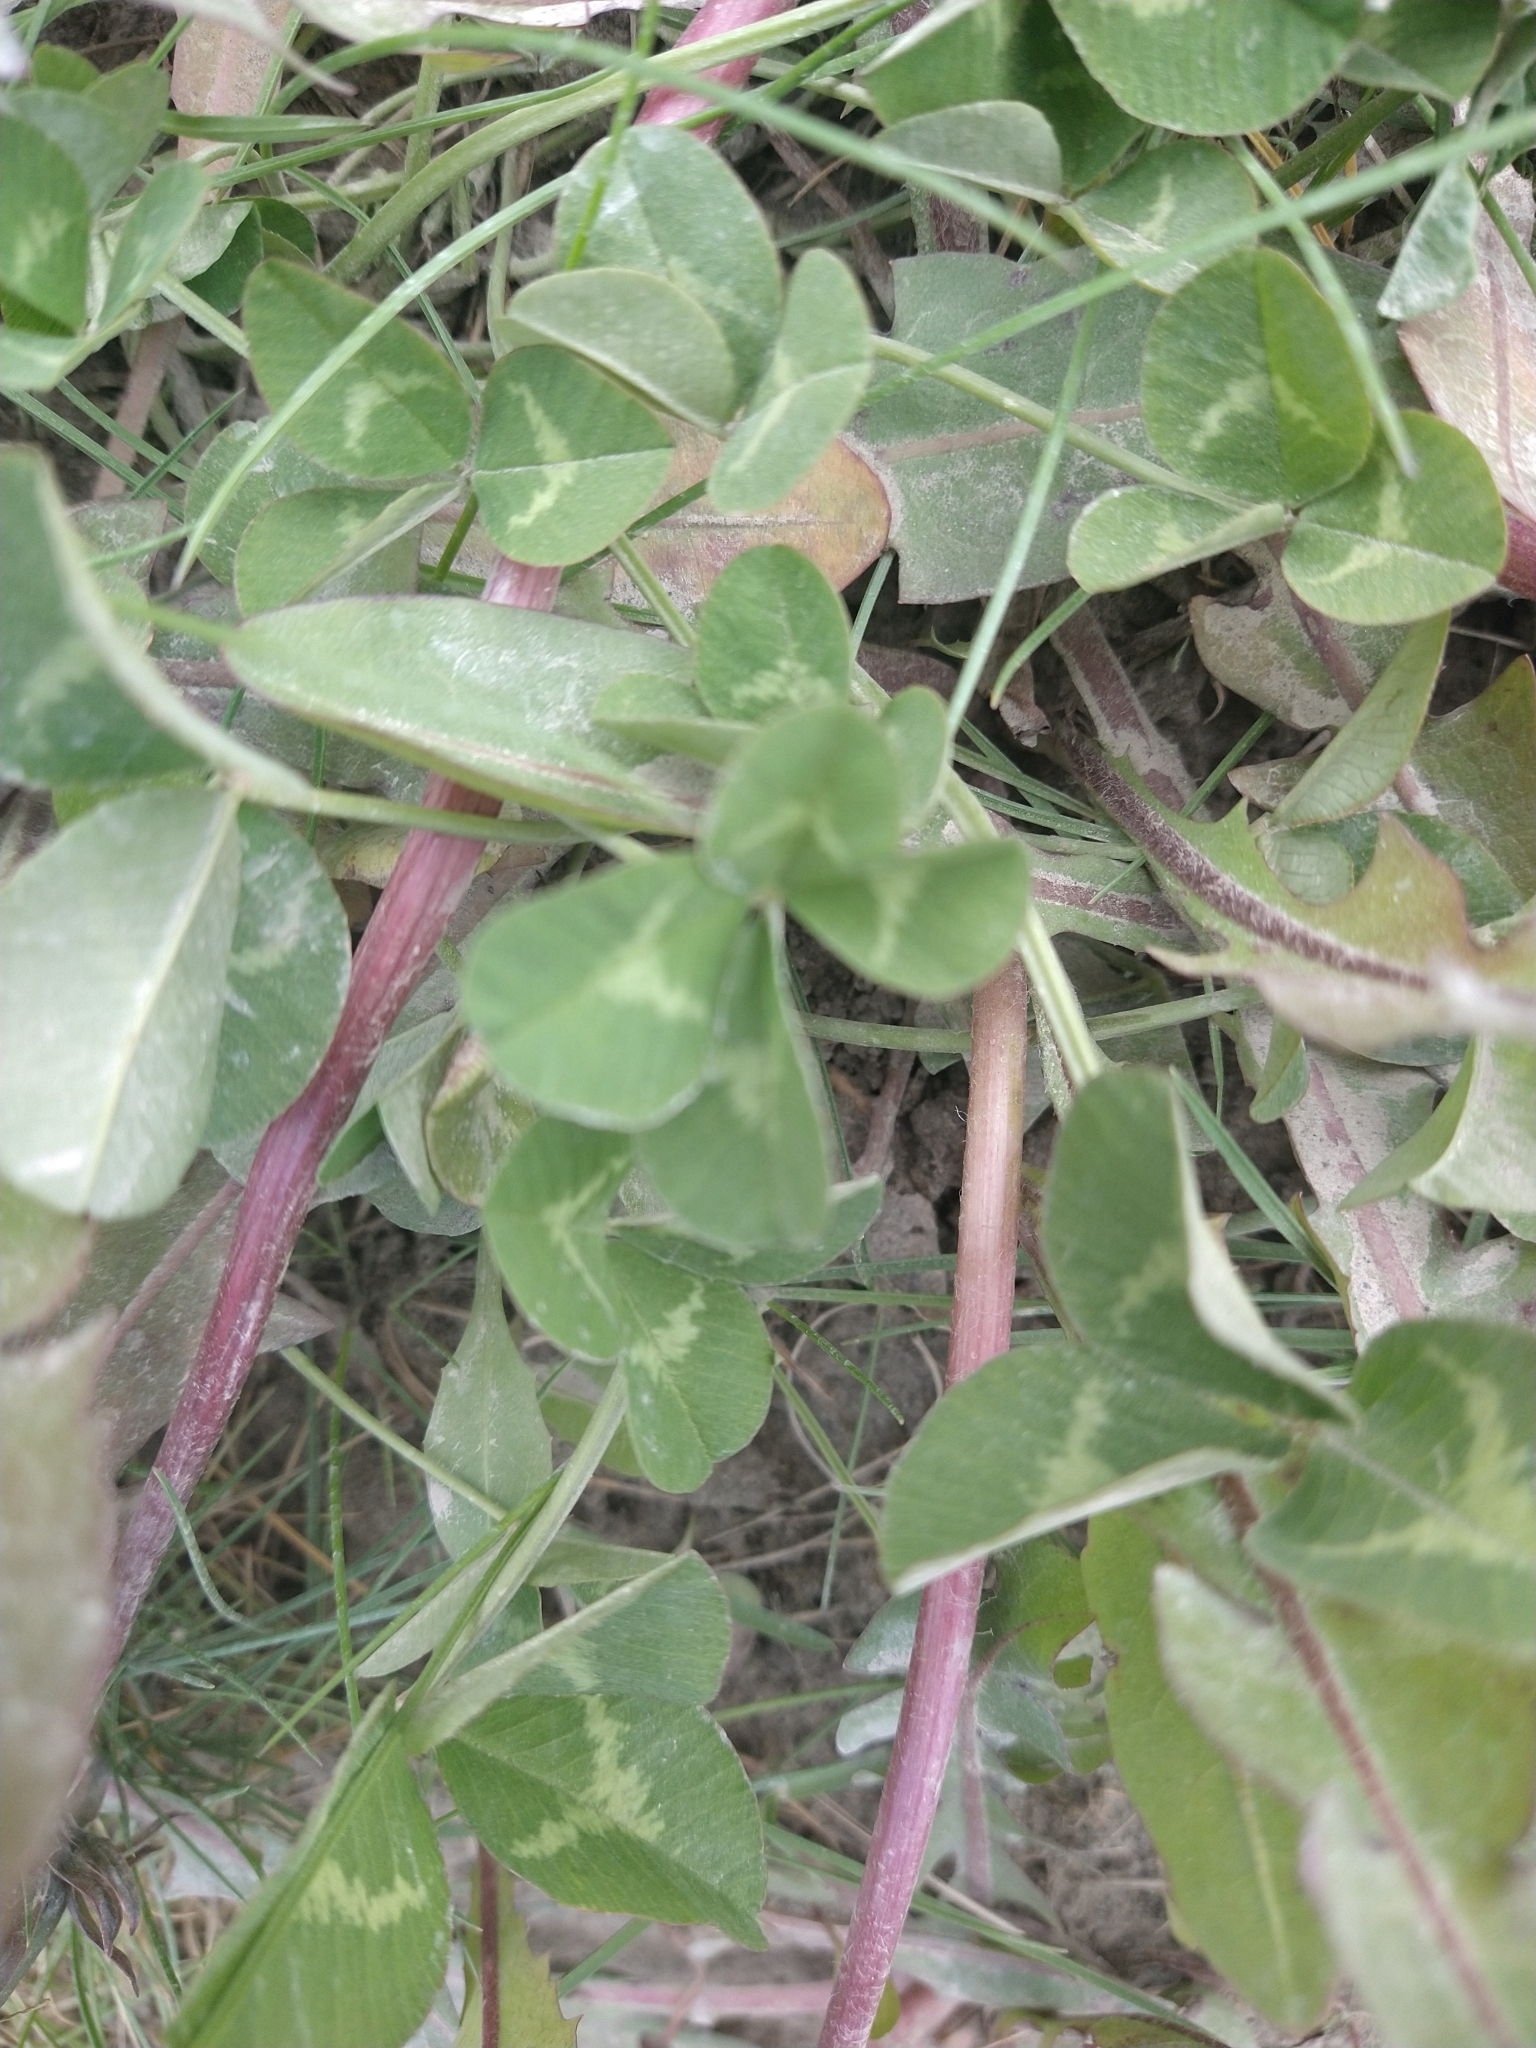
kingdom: Plantae
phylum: Tracheophyta
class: Magnoliopsida
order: Fabales
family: Fabaceae
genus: Trifolium
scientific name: Trifolium repens
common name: White clover
